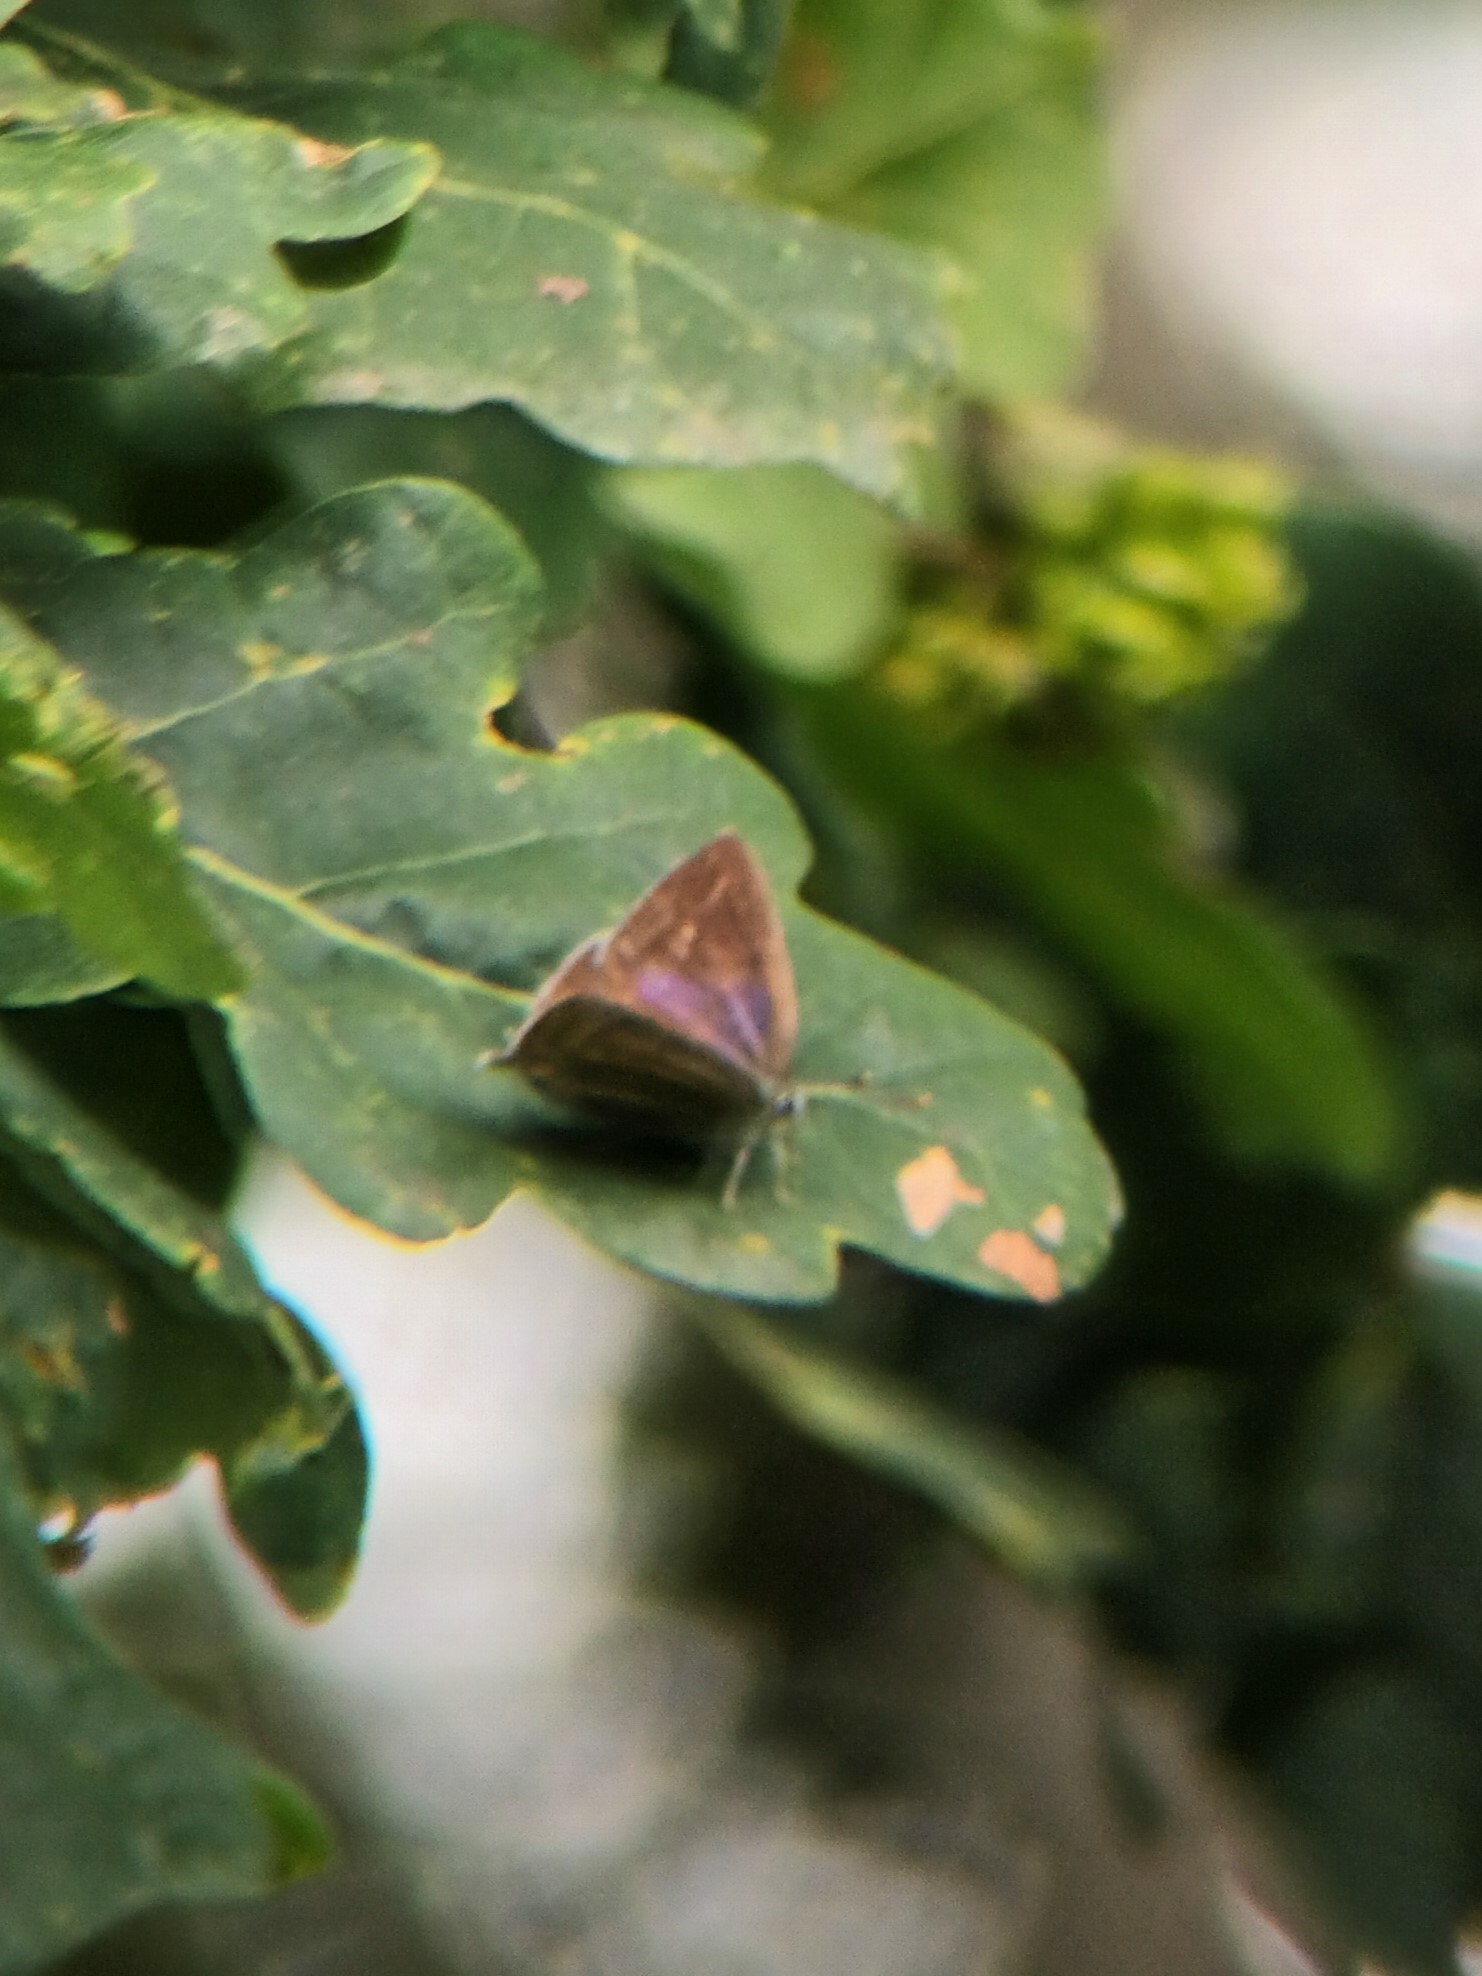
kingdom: Animalia
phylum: Arthropoda
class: Insecta
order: Lepidoptera
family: Lycaenidae
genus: Quercusia
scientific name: Quercusia quercus
